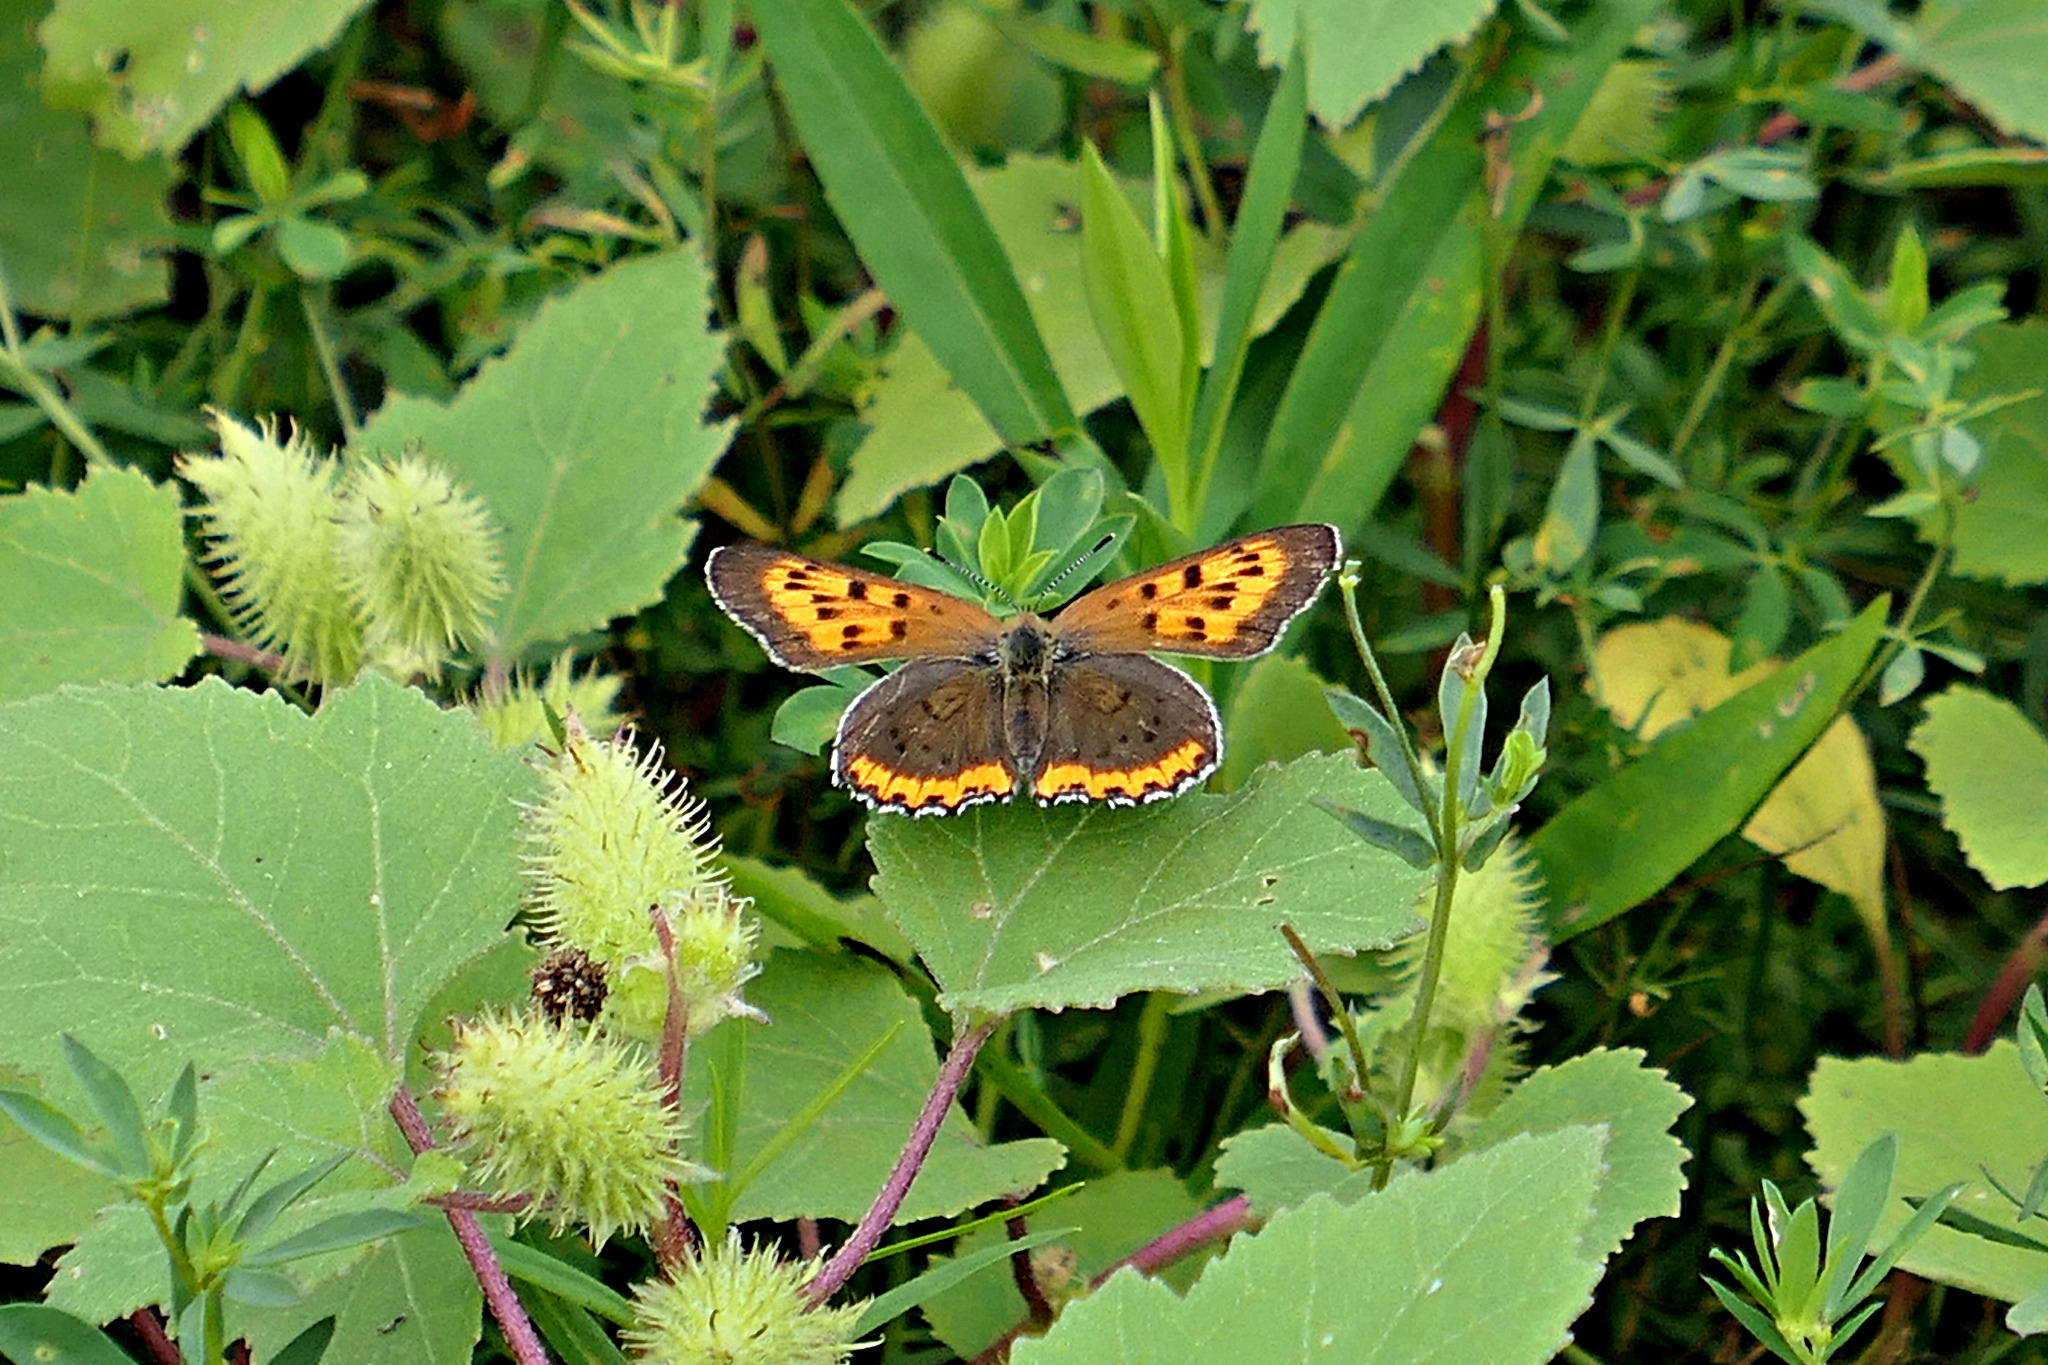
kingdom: Animalia
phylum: Arthropoda
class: Insecta
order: Lepidoptera
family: Lycaenidae
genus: Tharsalea
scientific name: Tharsalea hyllus
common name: Bronze copper
